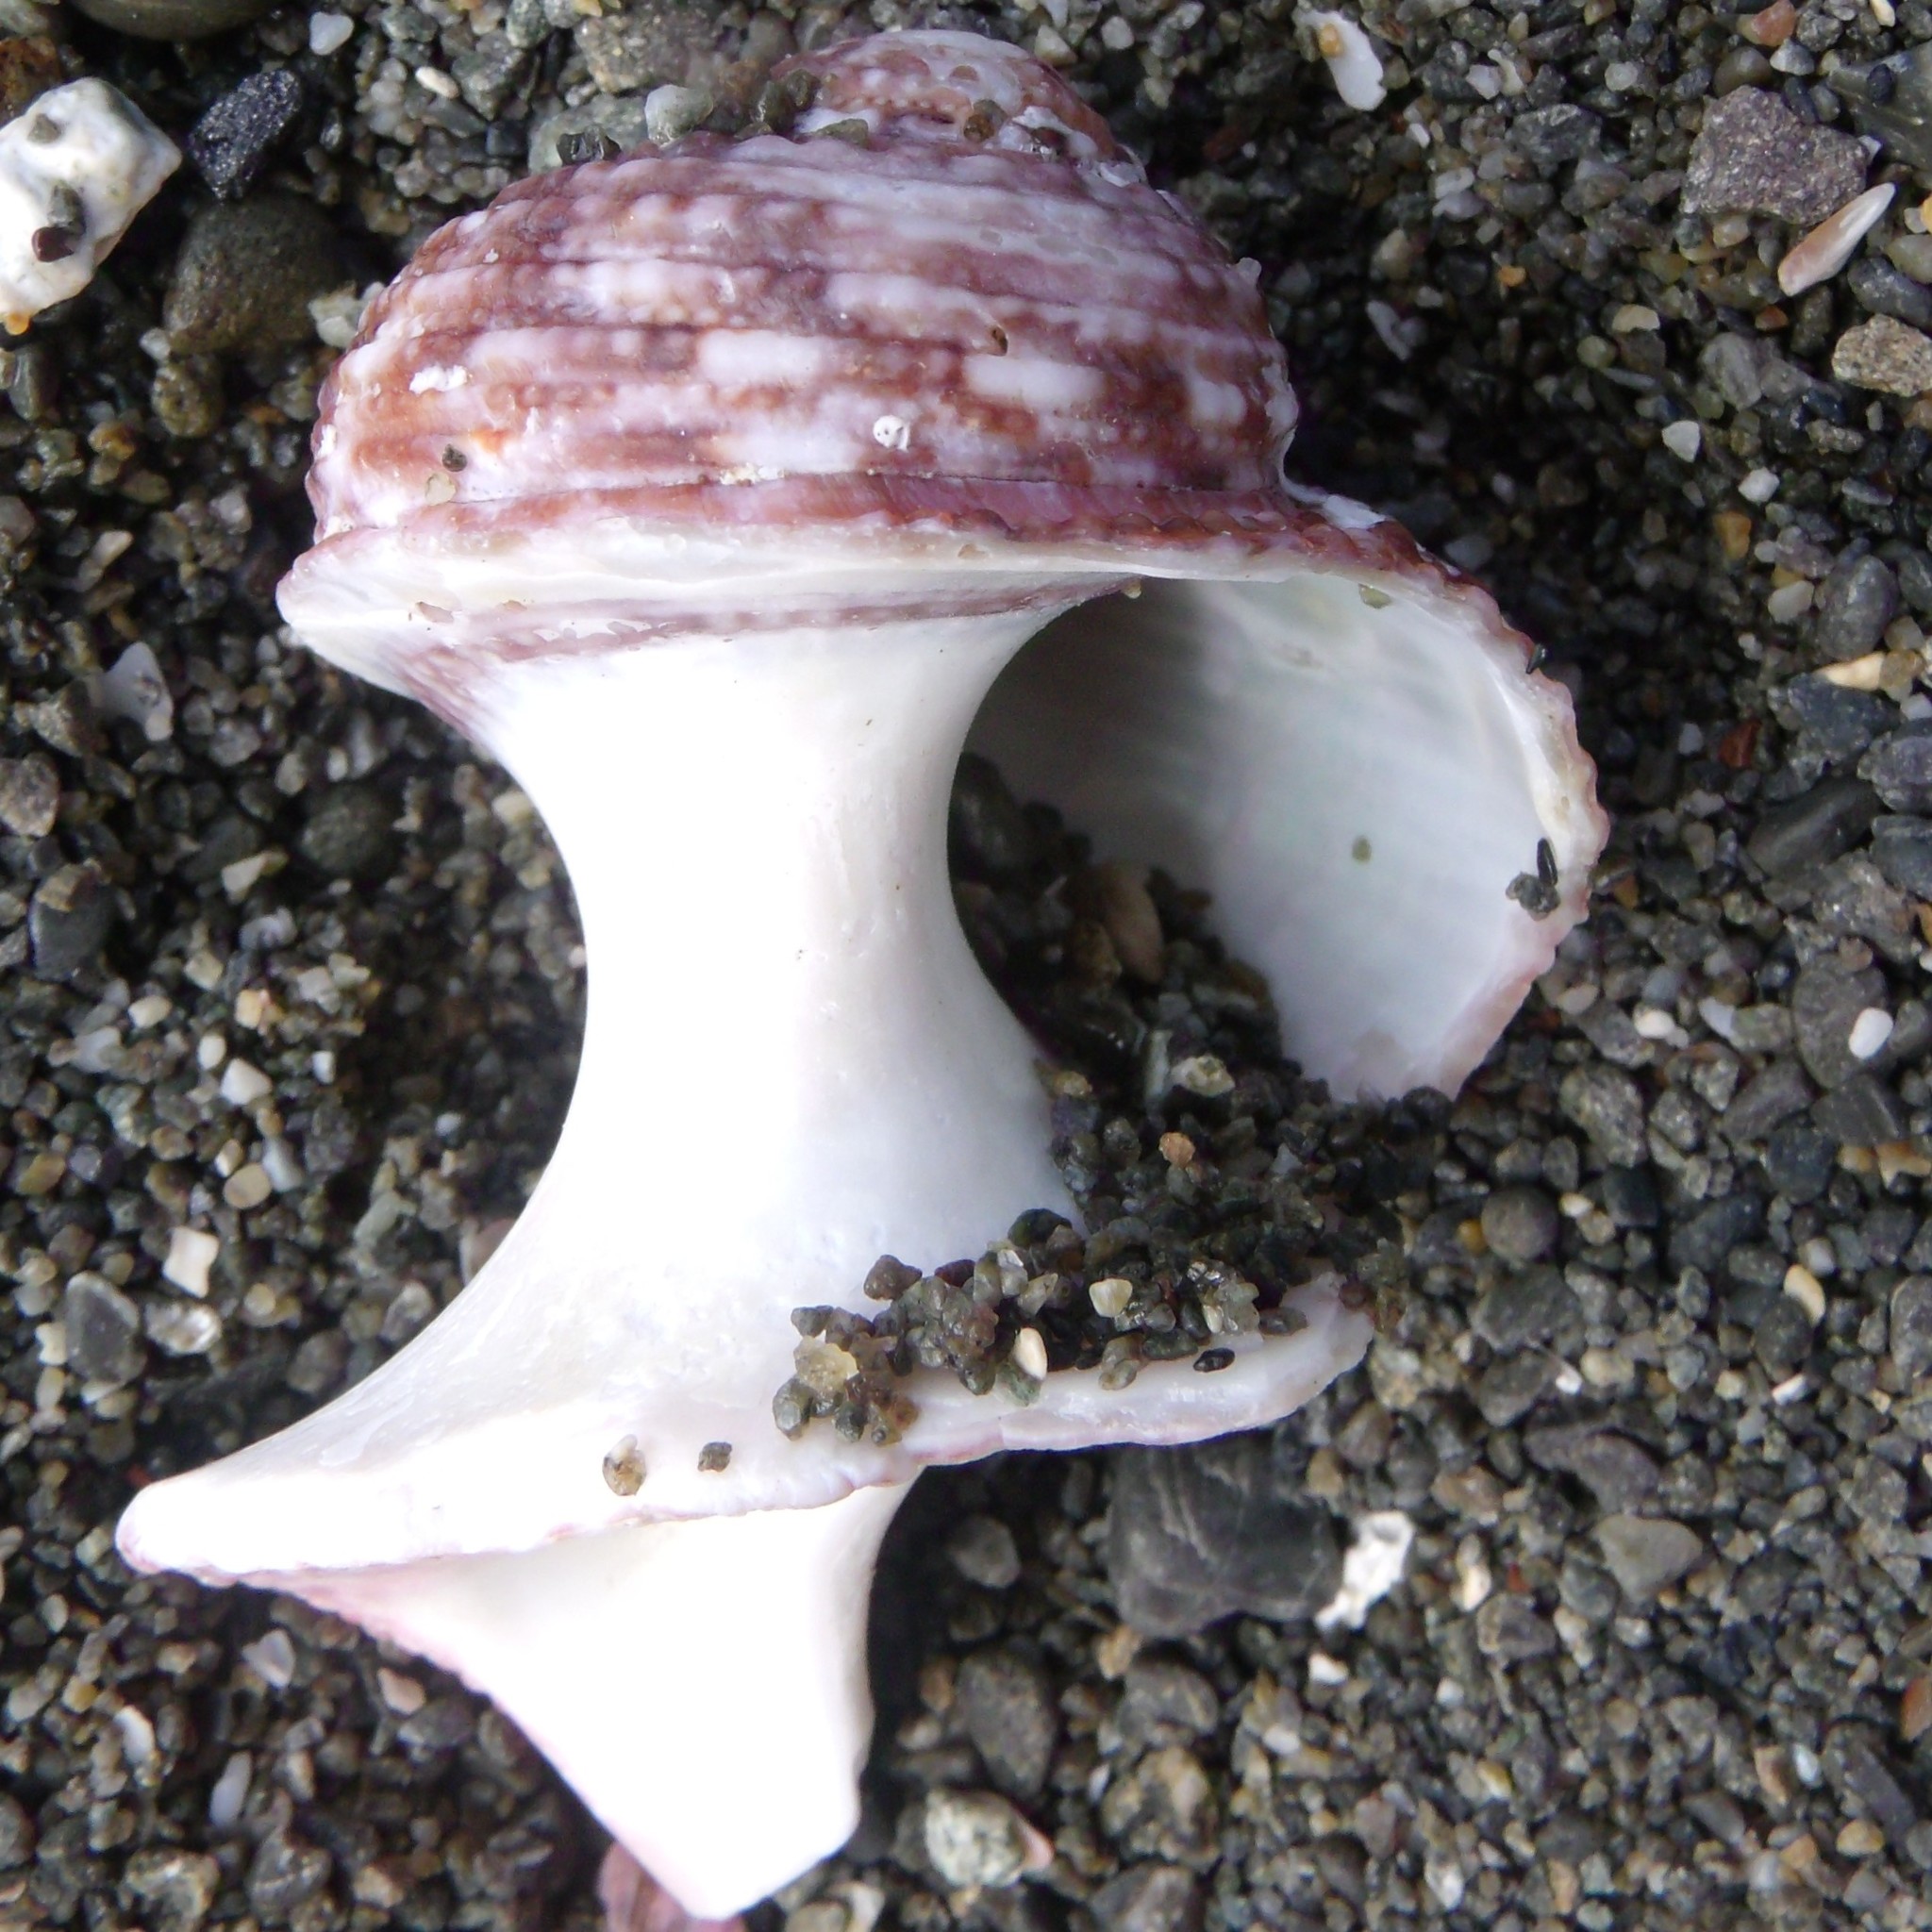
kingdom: Animalia
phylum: Mollusca
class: Gastropoda
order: Trochida
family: Turbinidae
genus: Modelia
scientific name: Modelia granosa
